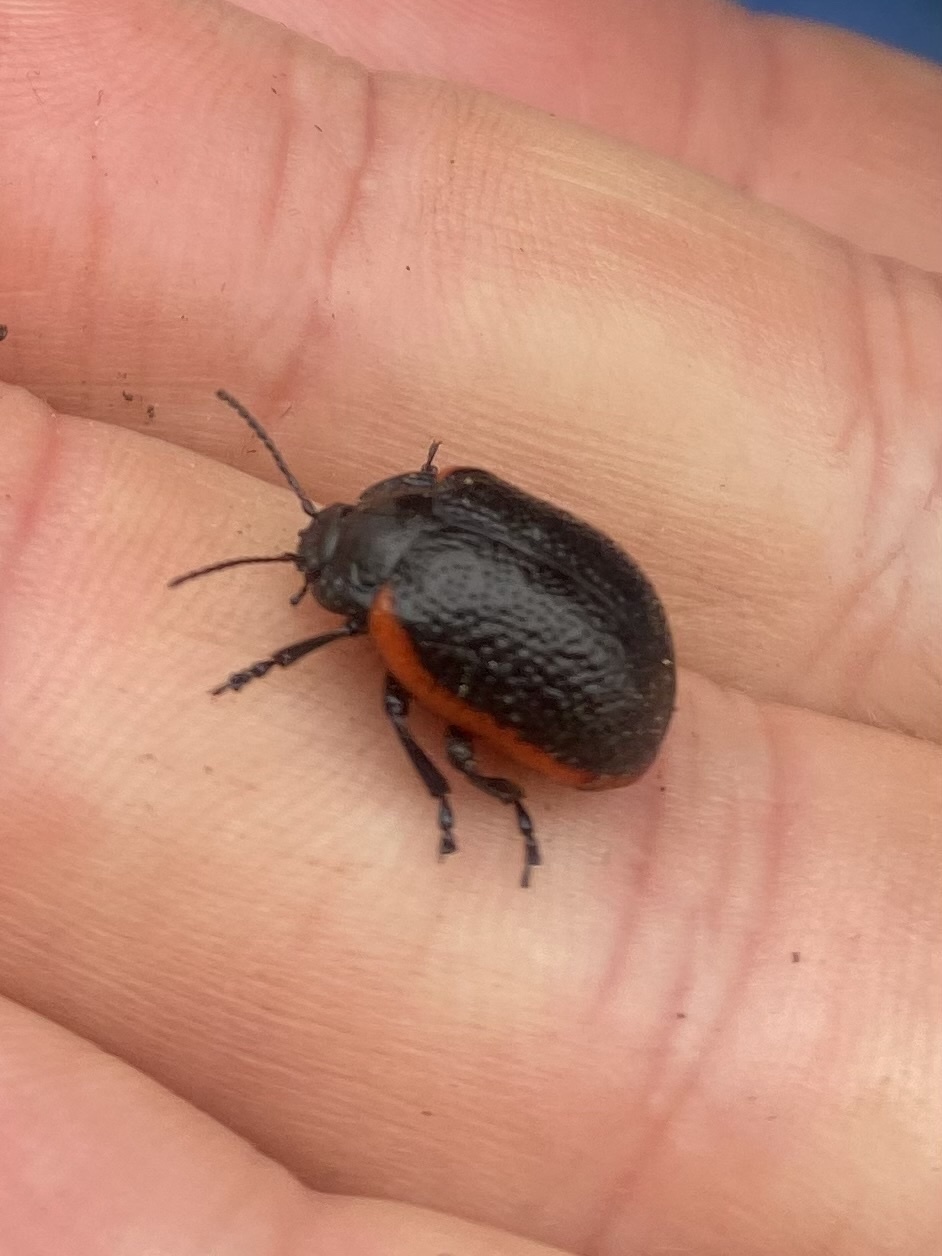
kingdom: Animalia
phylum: Arthropoda
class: Insecta
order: Coleoptera
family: Chrysomelidae
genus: Chrysolina
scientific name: Chrysolina sanguinolenta
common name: Toadflax leaf beetle
